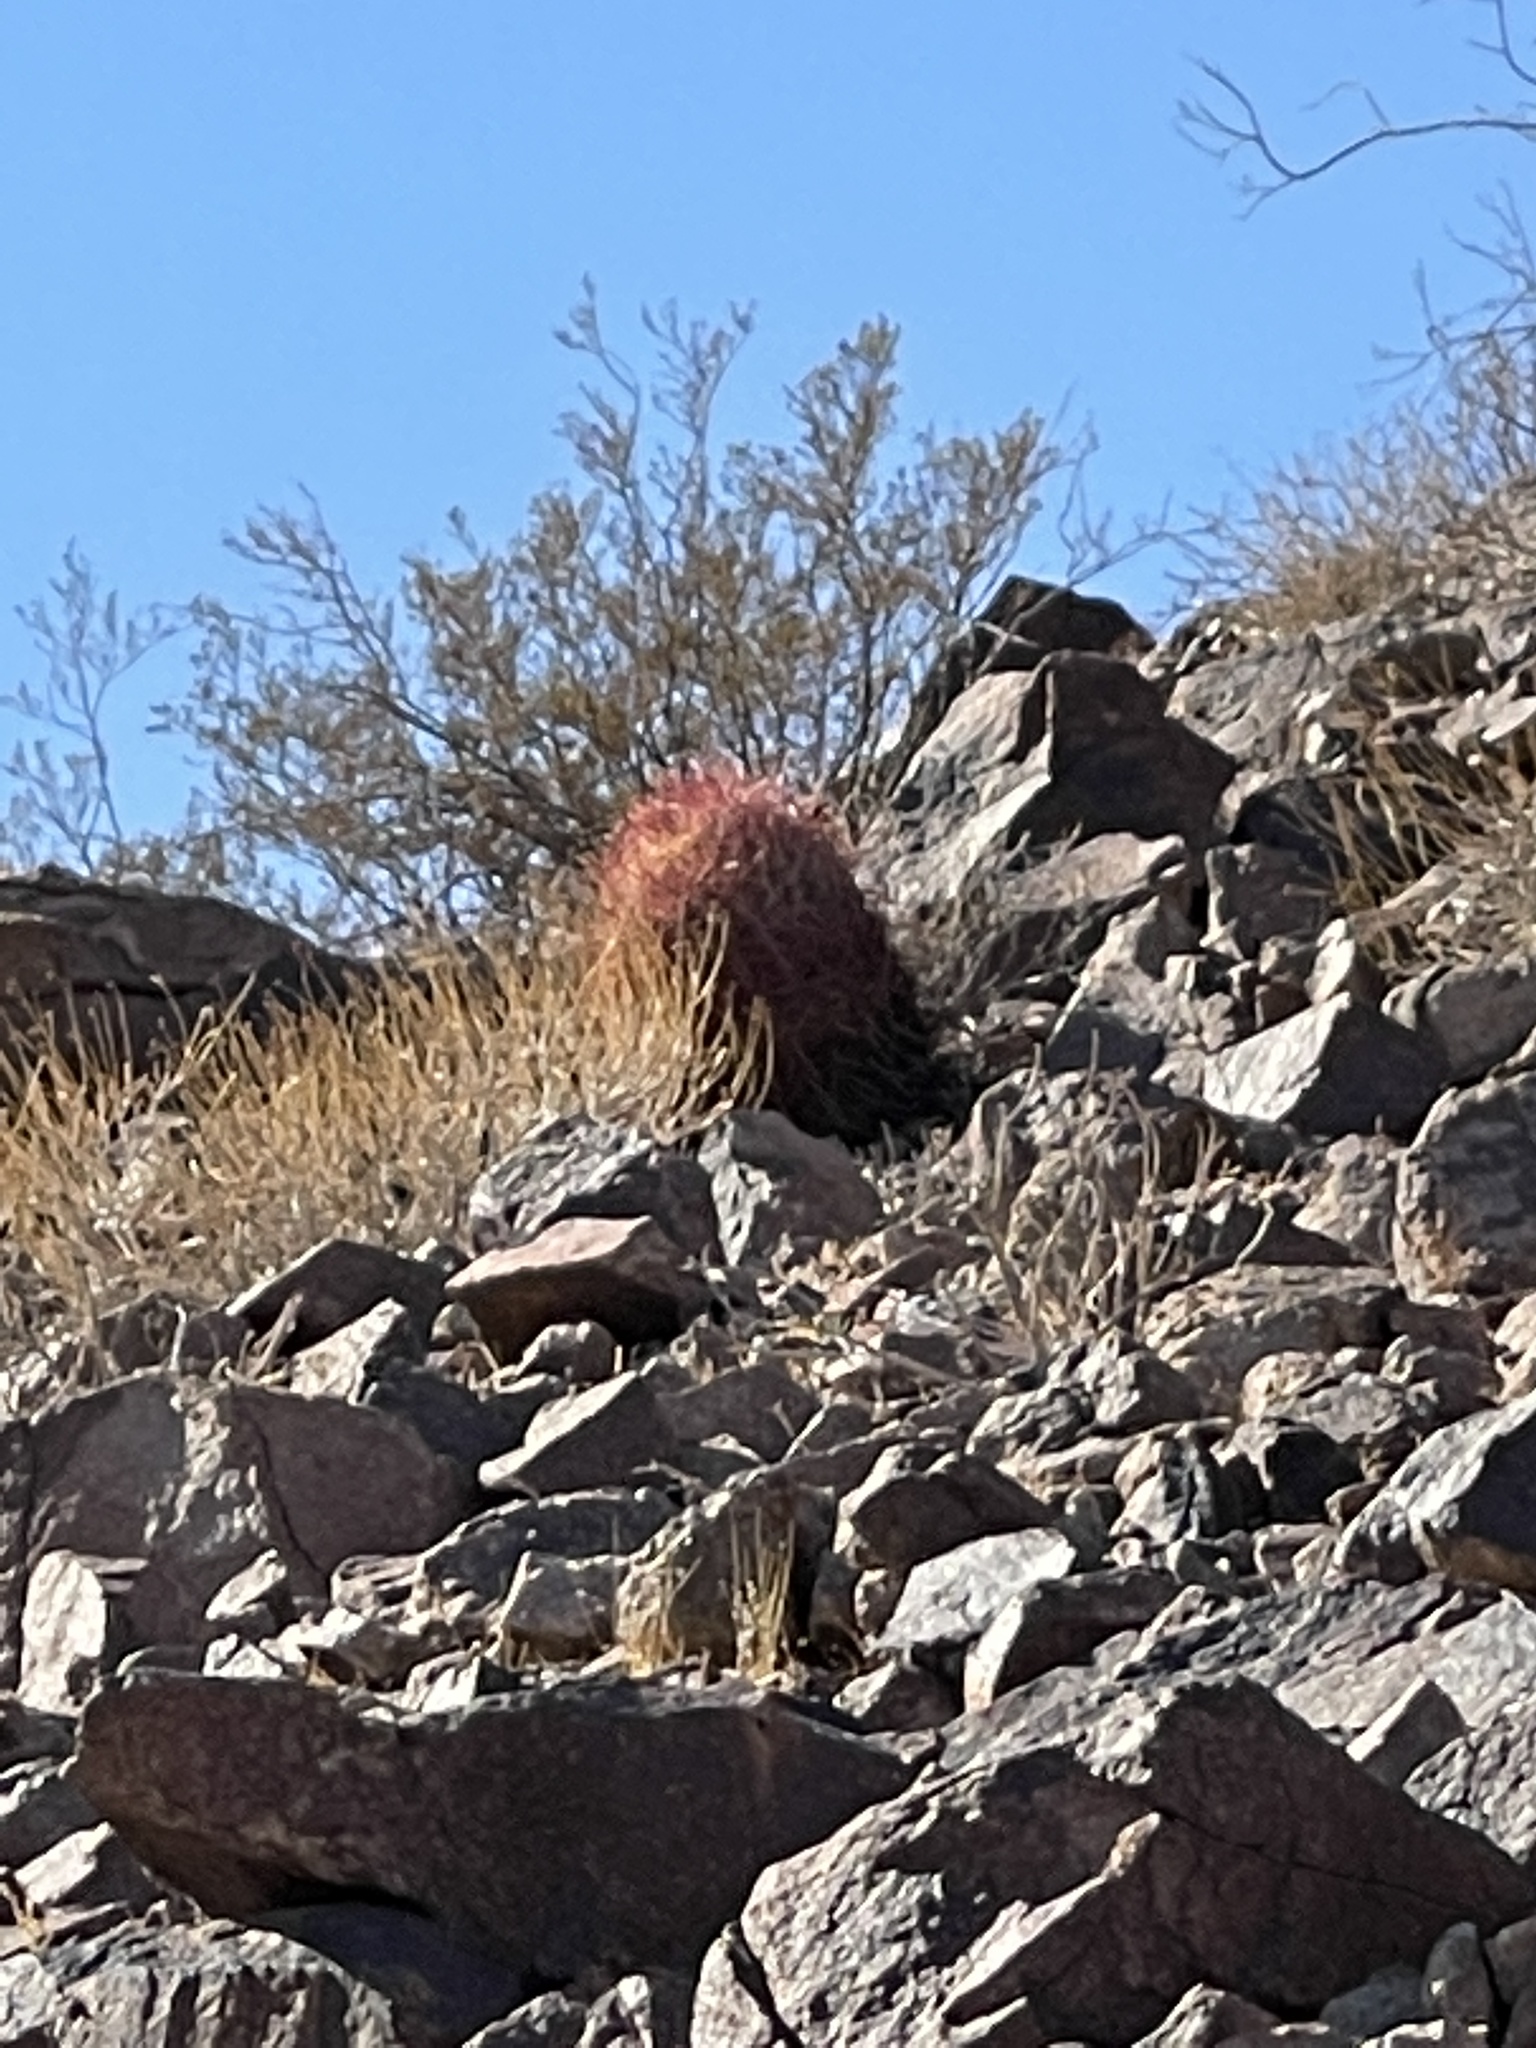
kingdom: Plantae
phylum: Tracheophyta
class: Magnoliopsida
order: Caryophyllales
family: Cactaceae
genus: Ferocactus
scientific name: Ferocactus cylindraceus
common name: California barrel cactus
